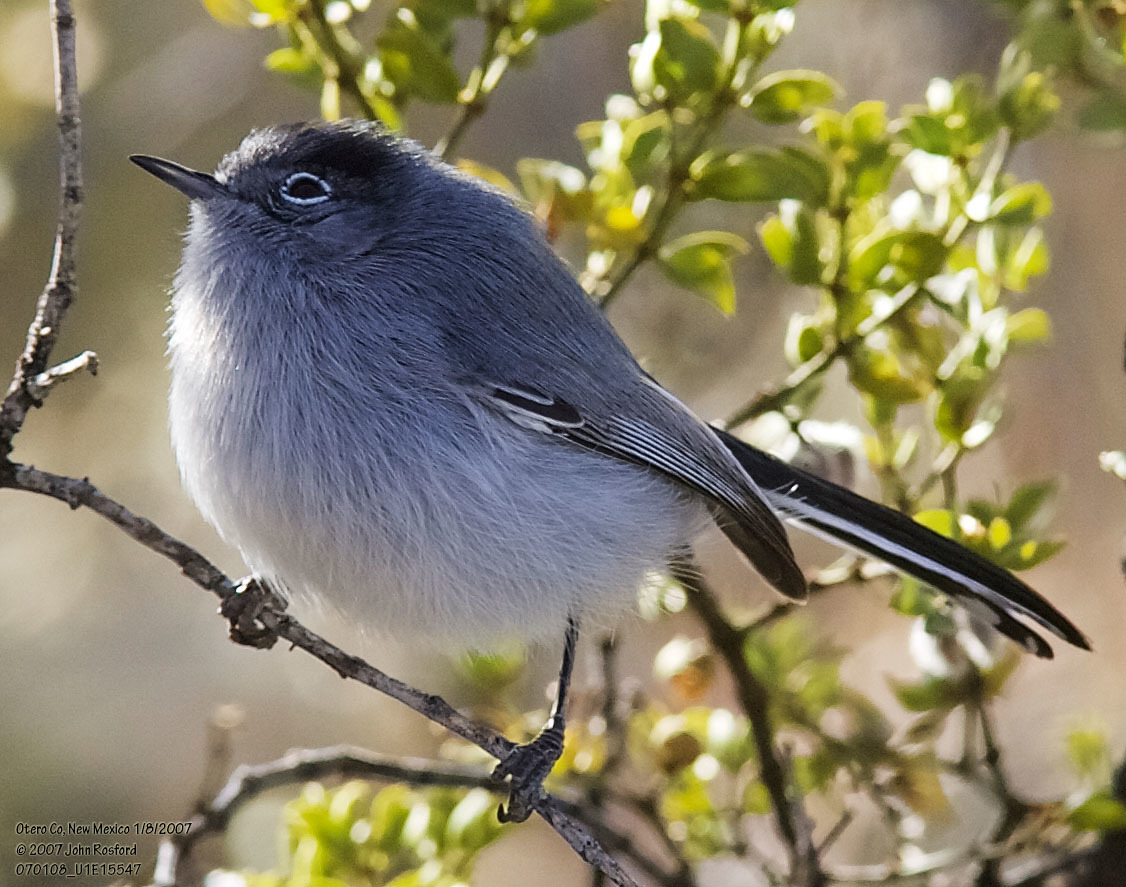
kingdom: Animalia
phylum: Chordata
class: Aves
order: Passeriformes
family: Polioptilidae
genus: Polioptila
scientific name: Polioptila caerulea
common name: Blue-gray gnatcatcher
